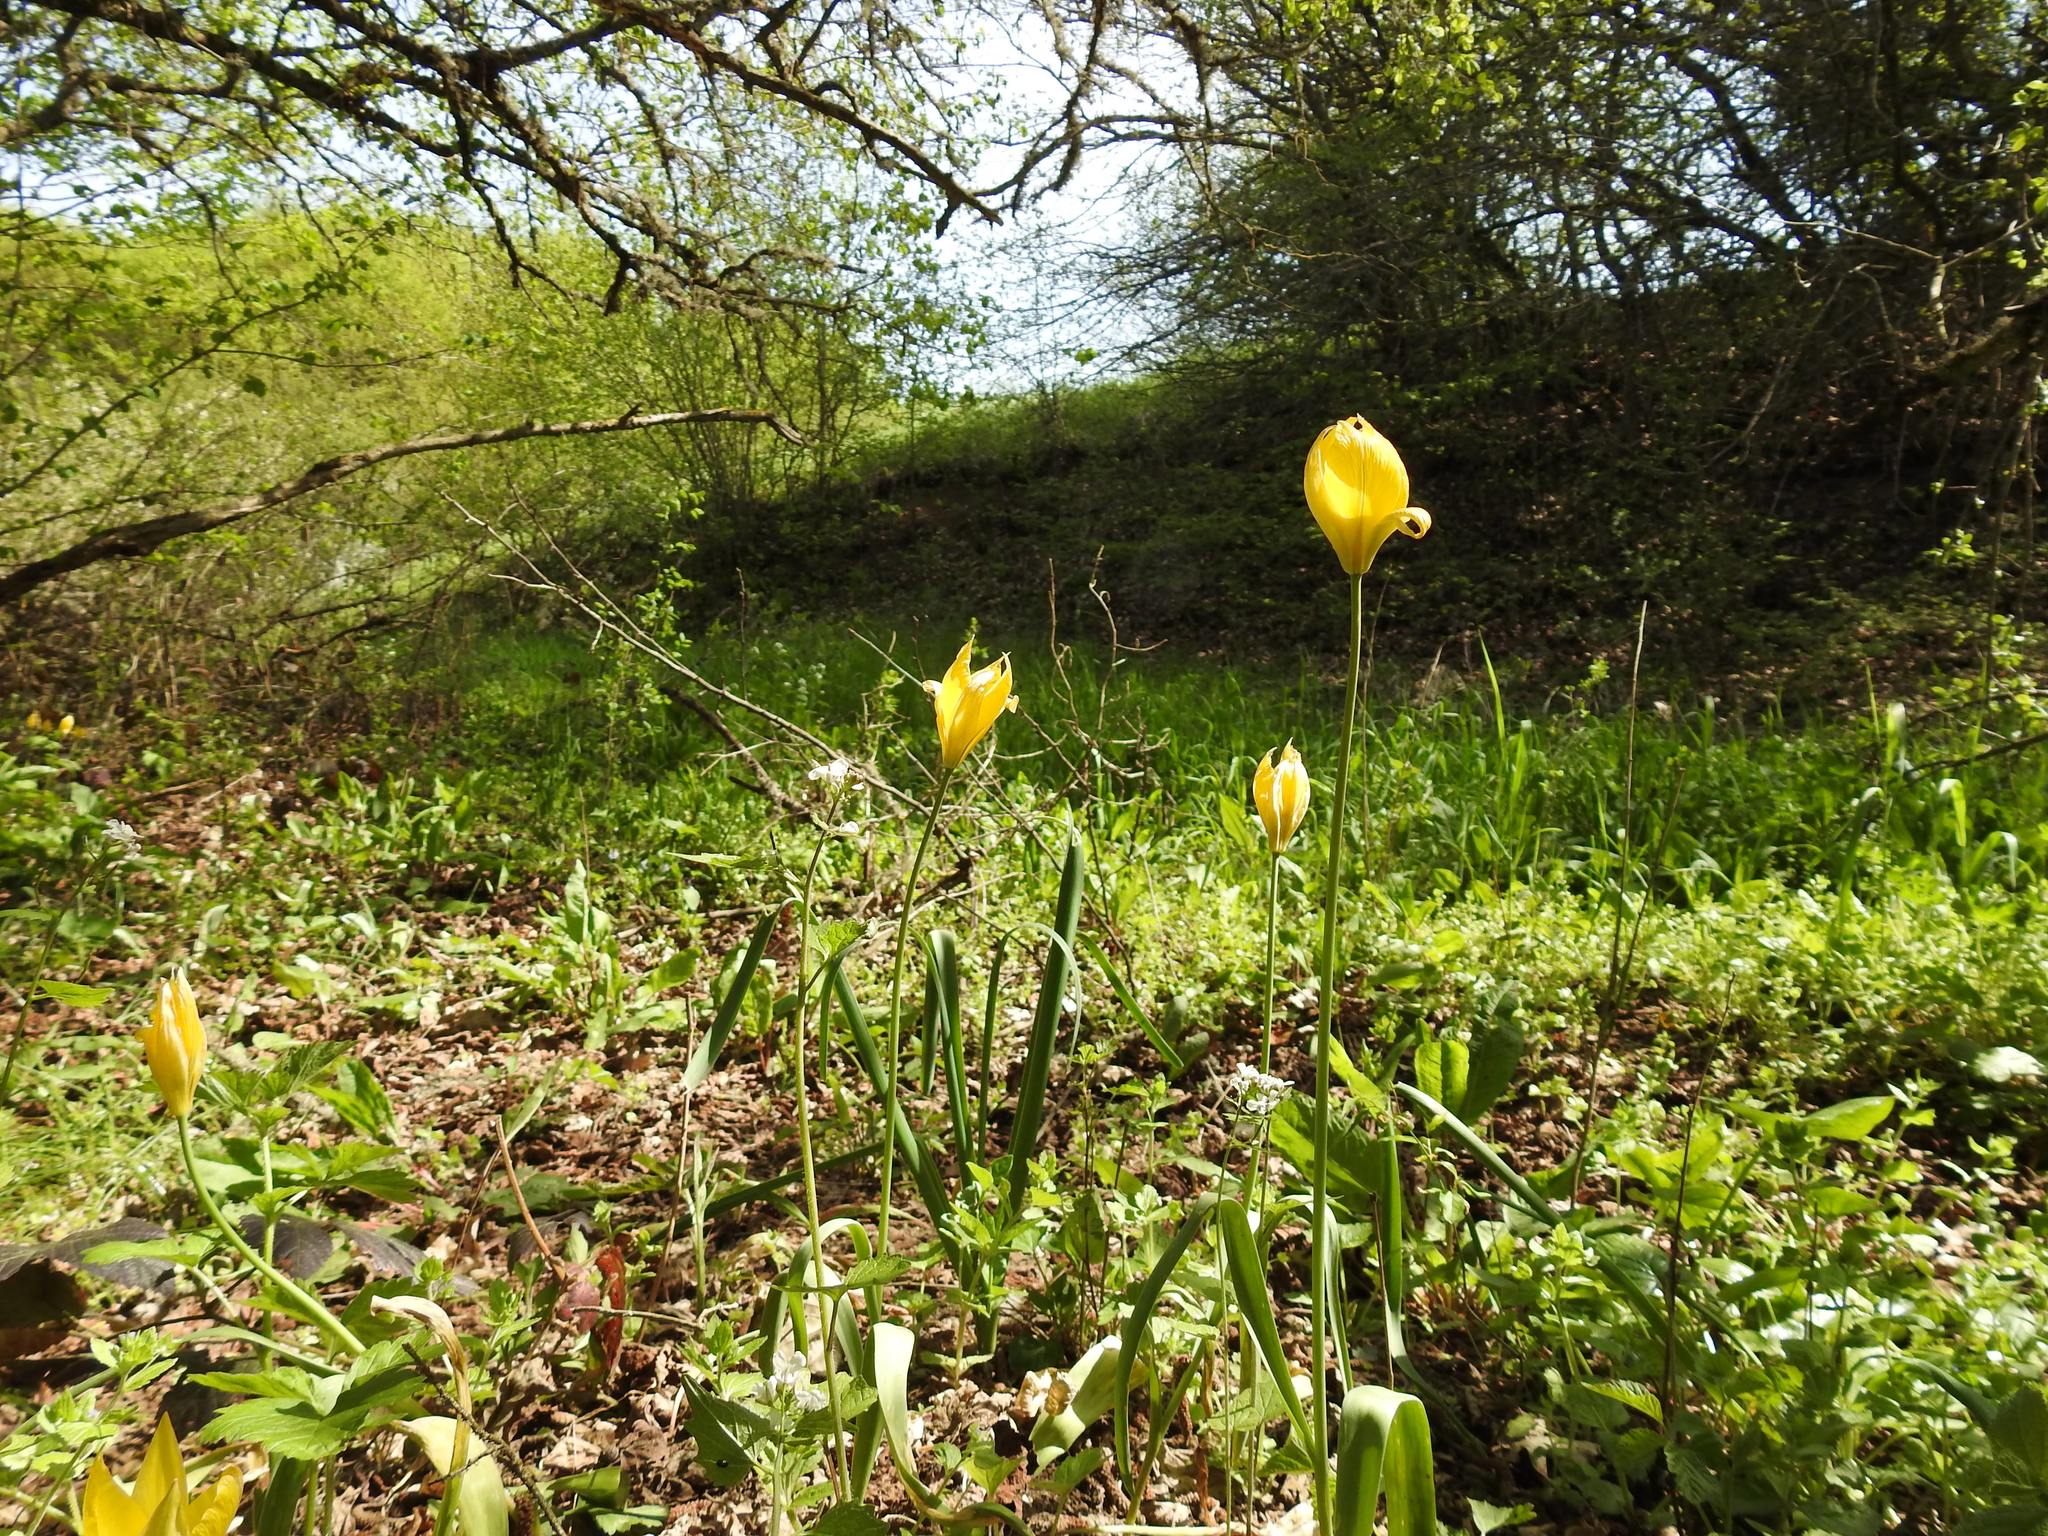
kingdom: Plantae
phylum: Tracheophyta
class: Liliopsida
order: Liliales
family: Liliaceae
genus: Tulipa
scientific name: Tulipa sylvestris
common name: Wild tulip
